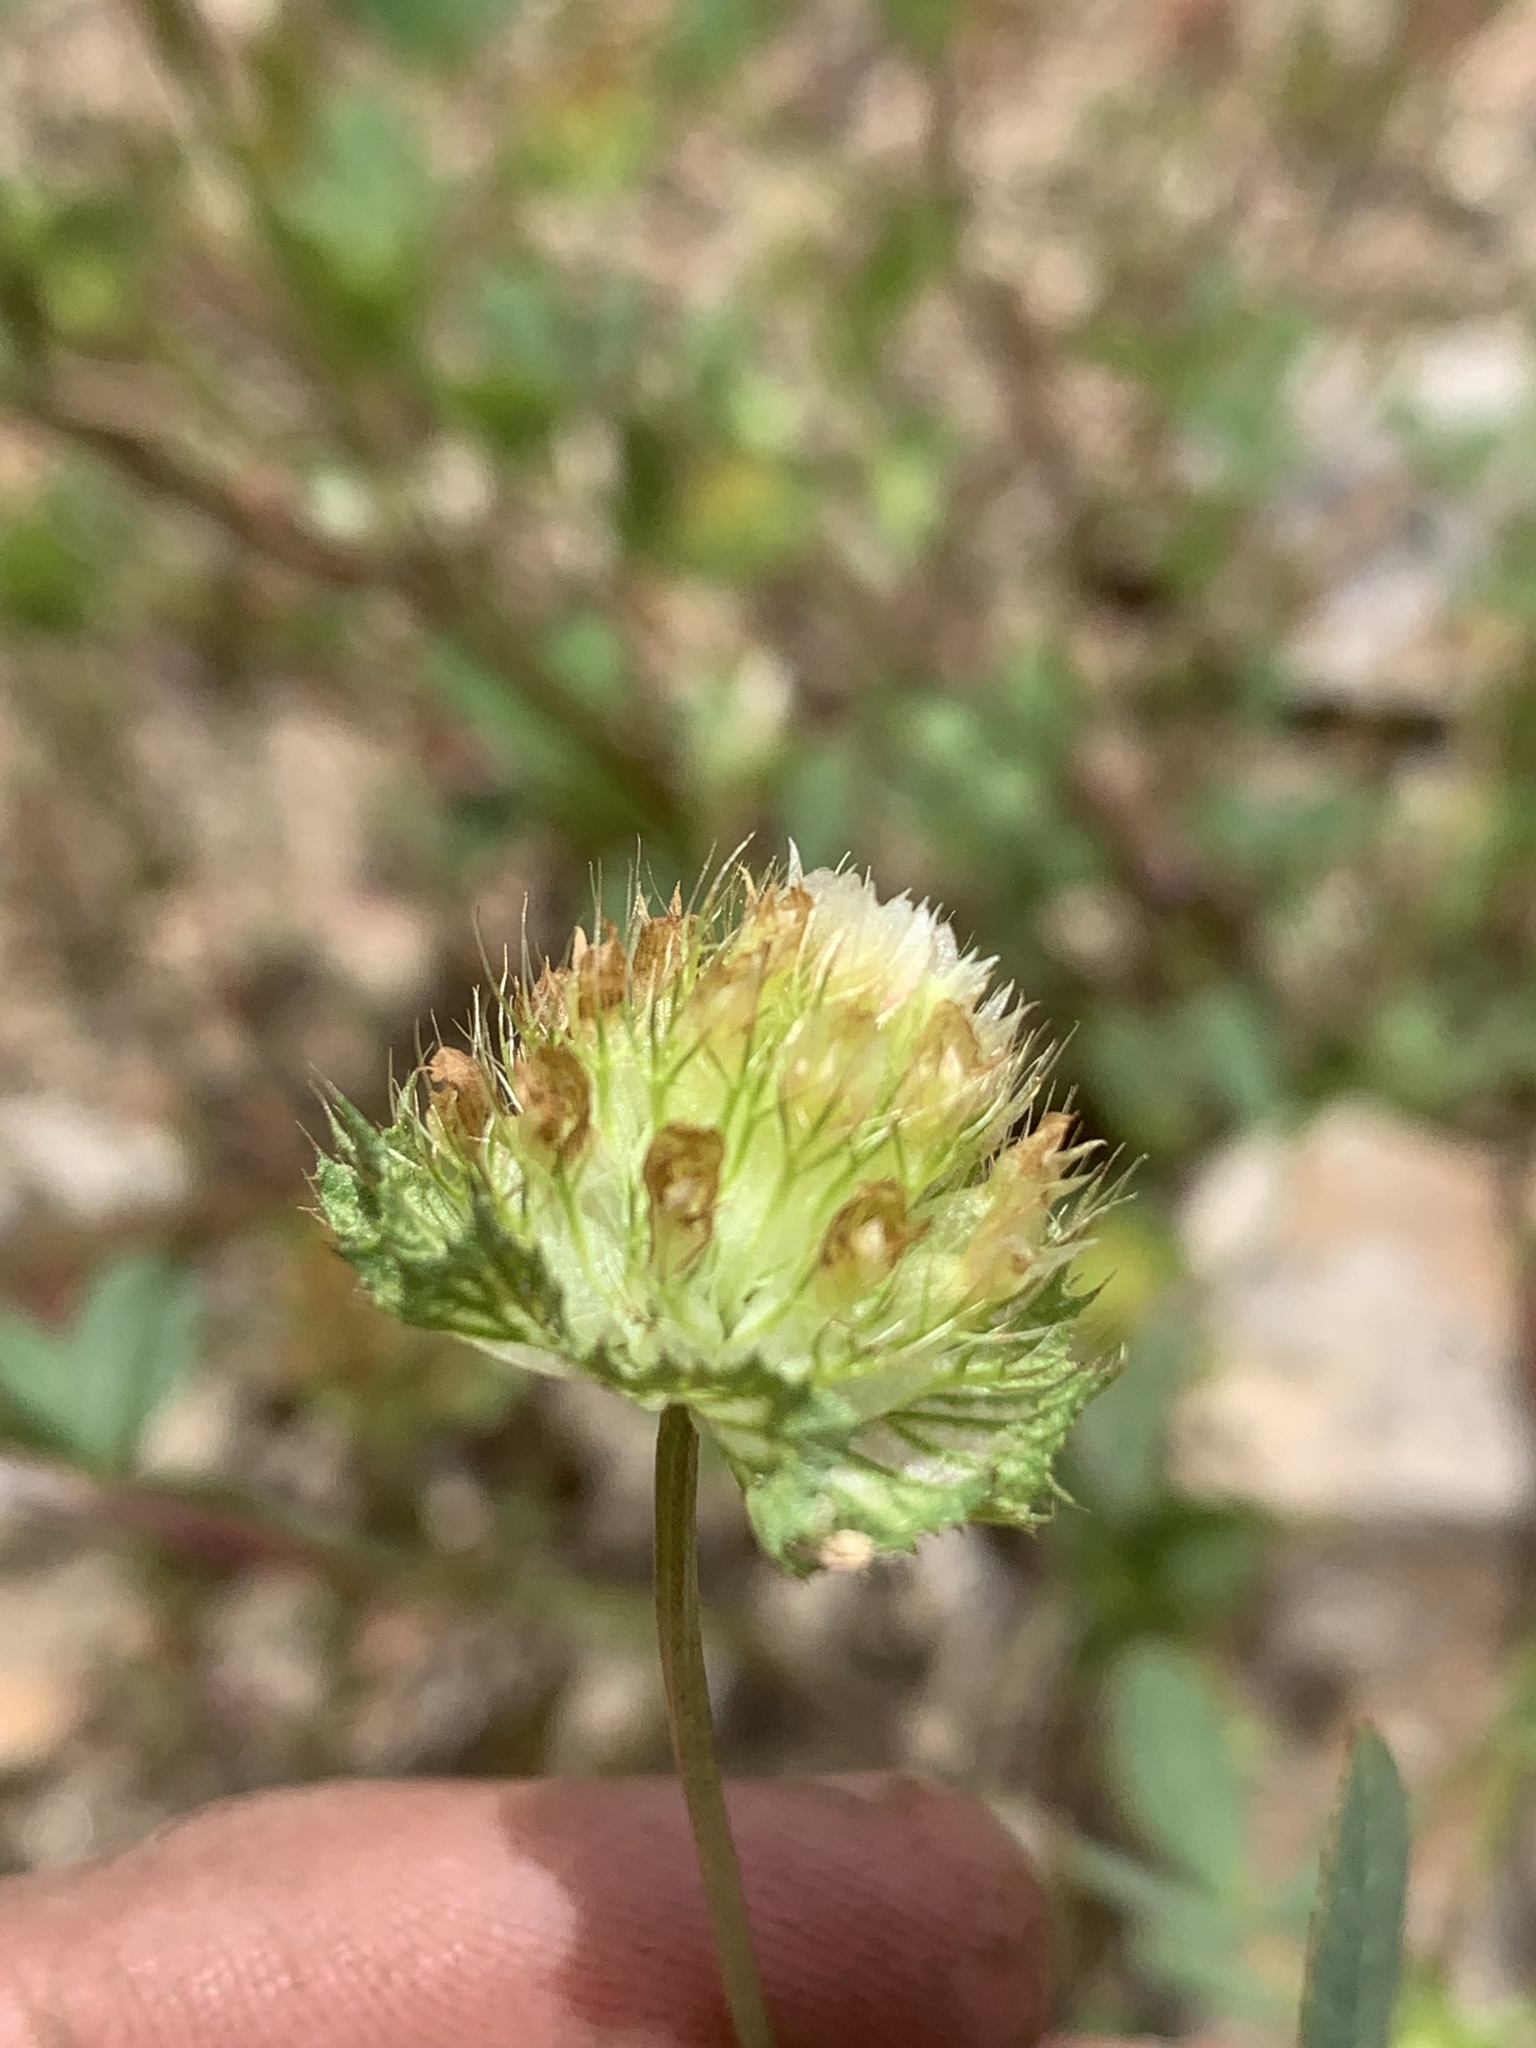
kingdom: Plantae
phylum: Tracheophyta
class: Magnoliopsida
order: Fabales
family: Fabaceae
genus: Trifolium
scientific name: Trifolium cyathiferum
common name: Bowl clover
